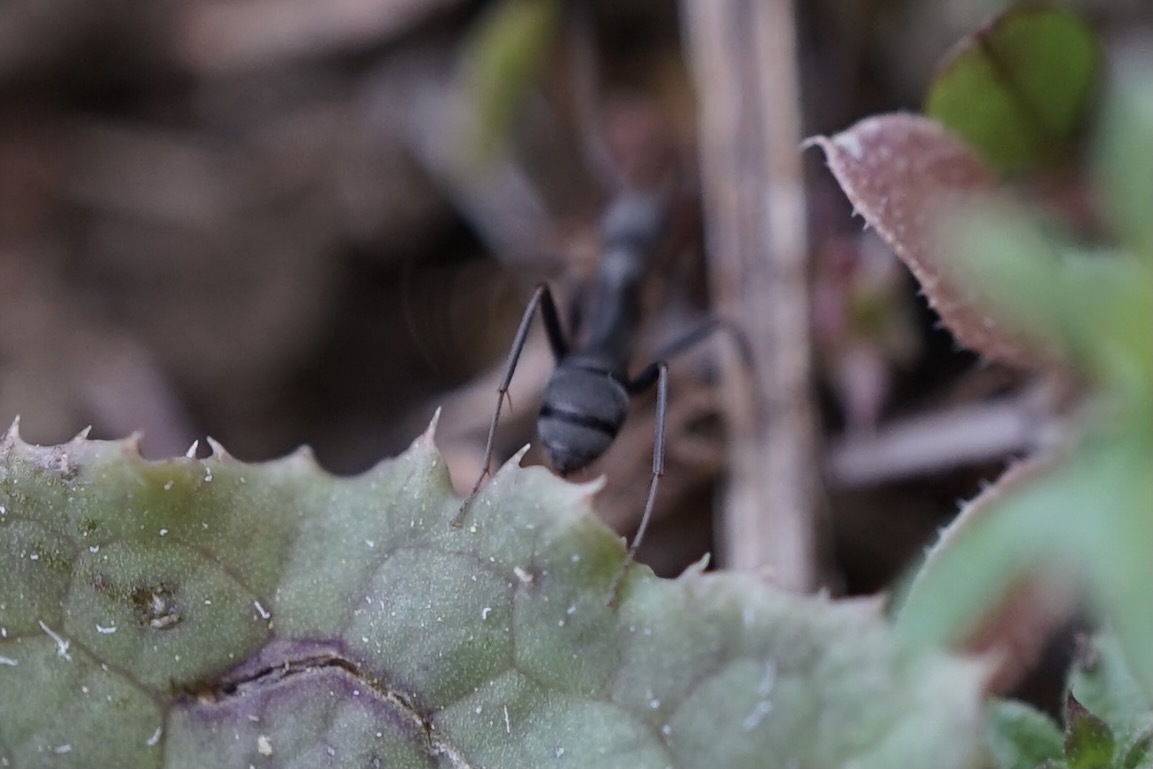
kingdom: Animalia
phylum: Arthropoda
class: Insecta
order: Hymenoptera
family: Formicidae
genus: Formica
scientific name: Formica japonica
